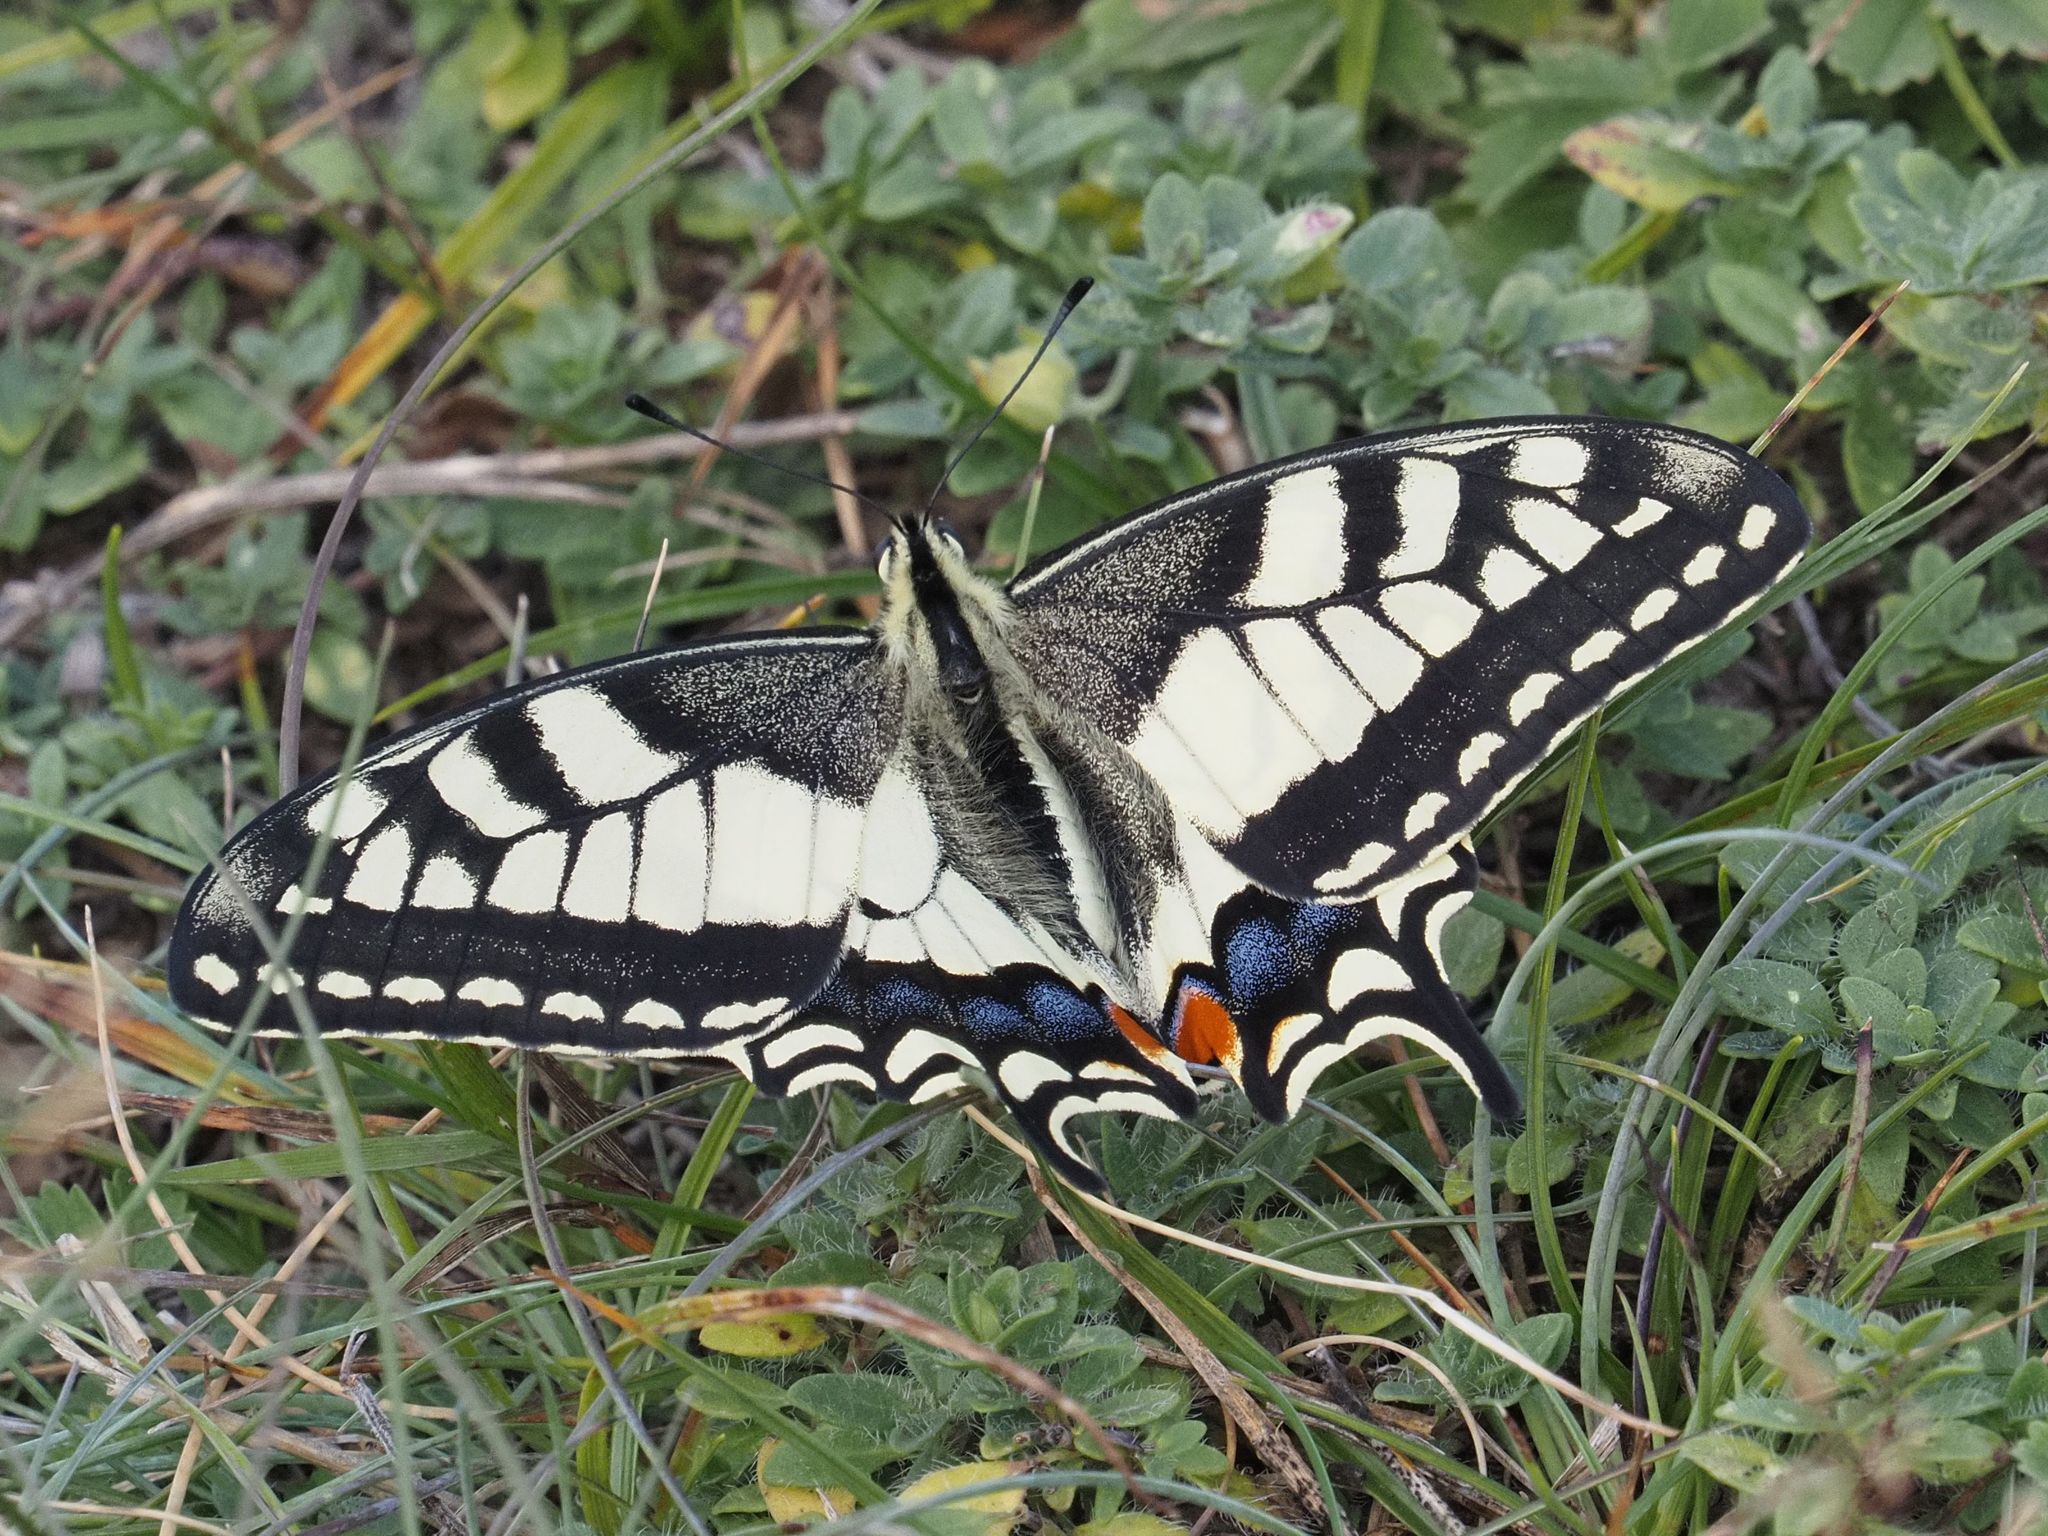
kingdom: Animalia
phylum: Arthropoda
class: Insecta
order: Lepidoptera
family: Papilionidae
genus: Papilio
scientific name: Papilio machaon
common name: Swallowtail
